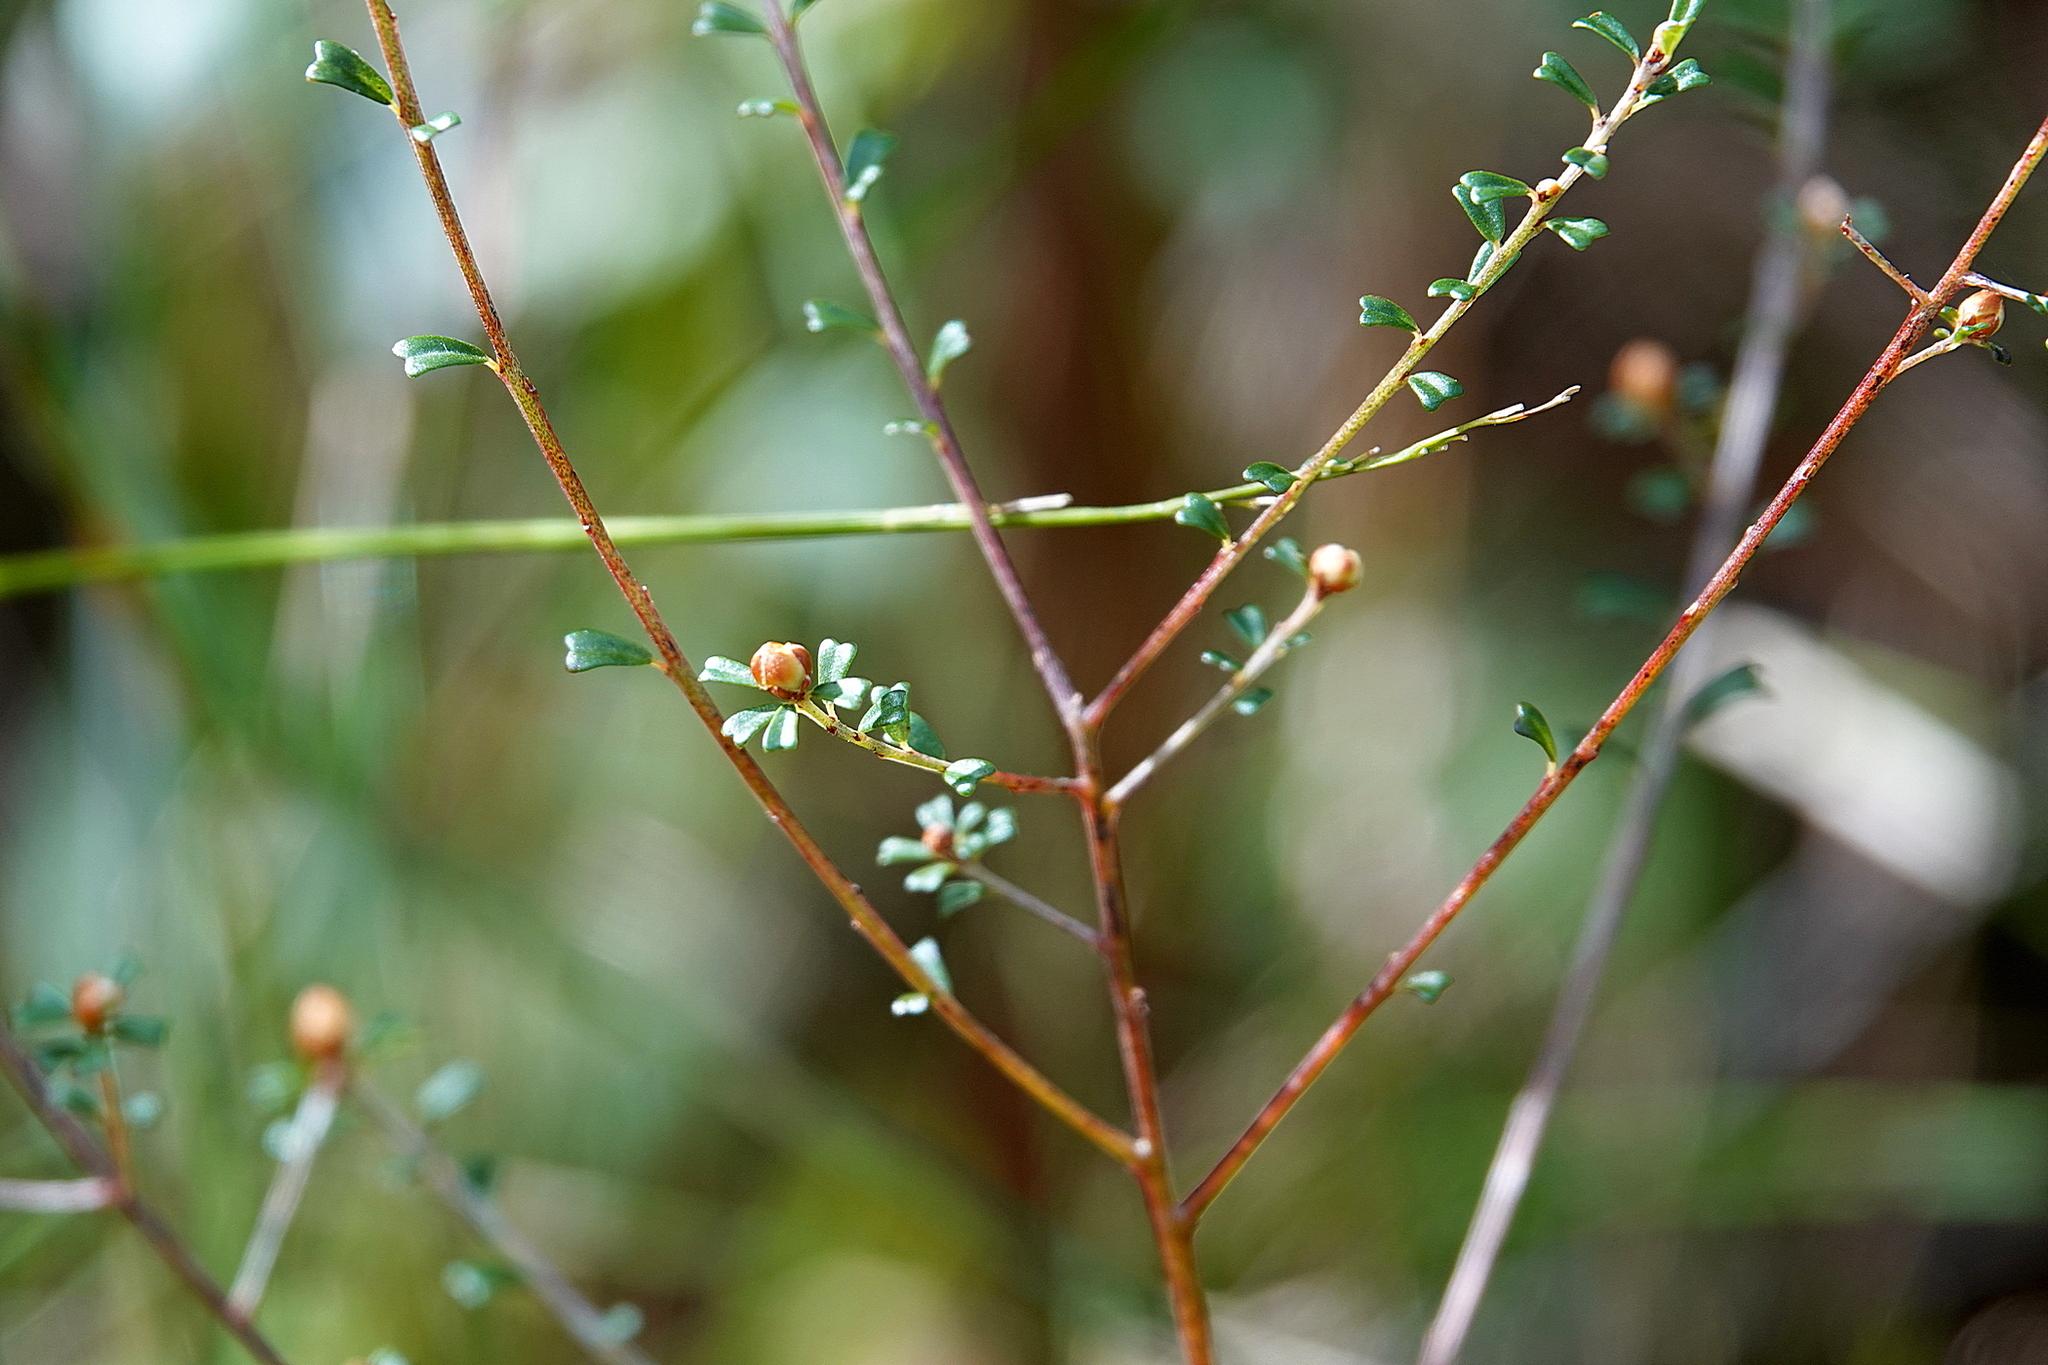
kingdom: Plantae
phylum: Tracheophyta
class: Magnoliopsida
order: Fabales
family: Fabaceae
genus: Pultenaea
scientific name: Pultenaea retusa
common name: Blunt bush-pea
